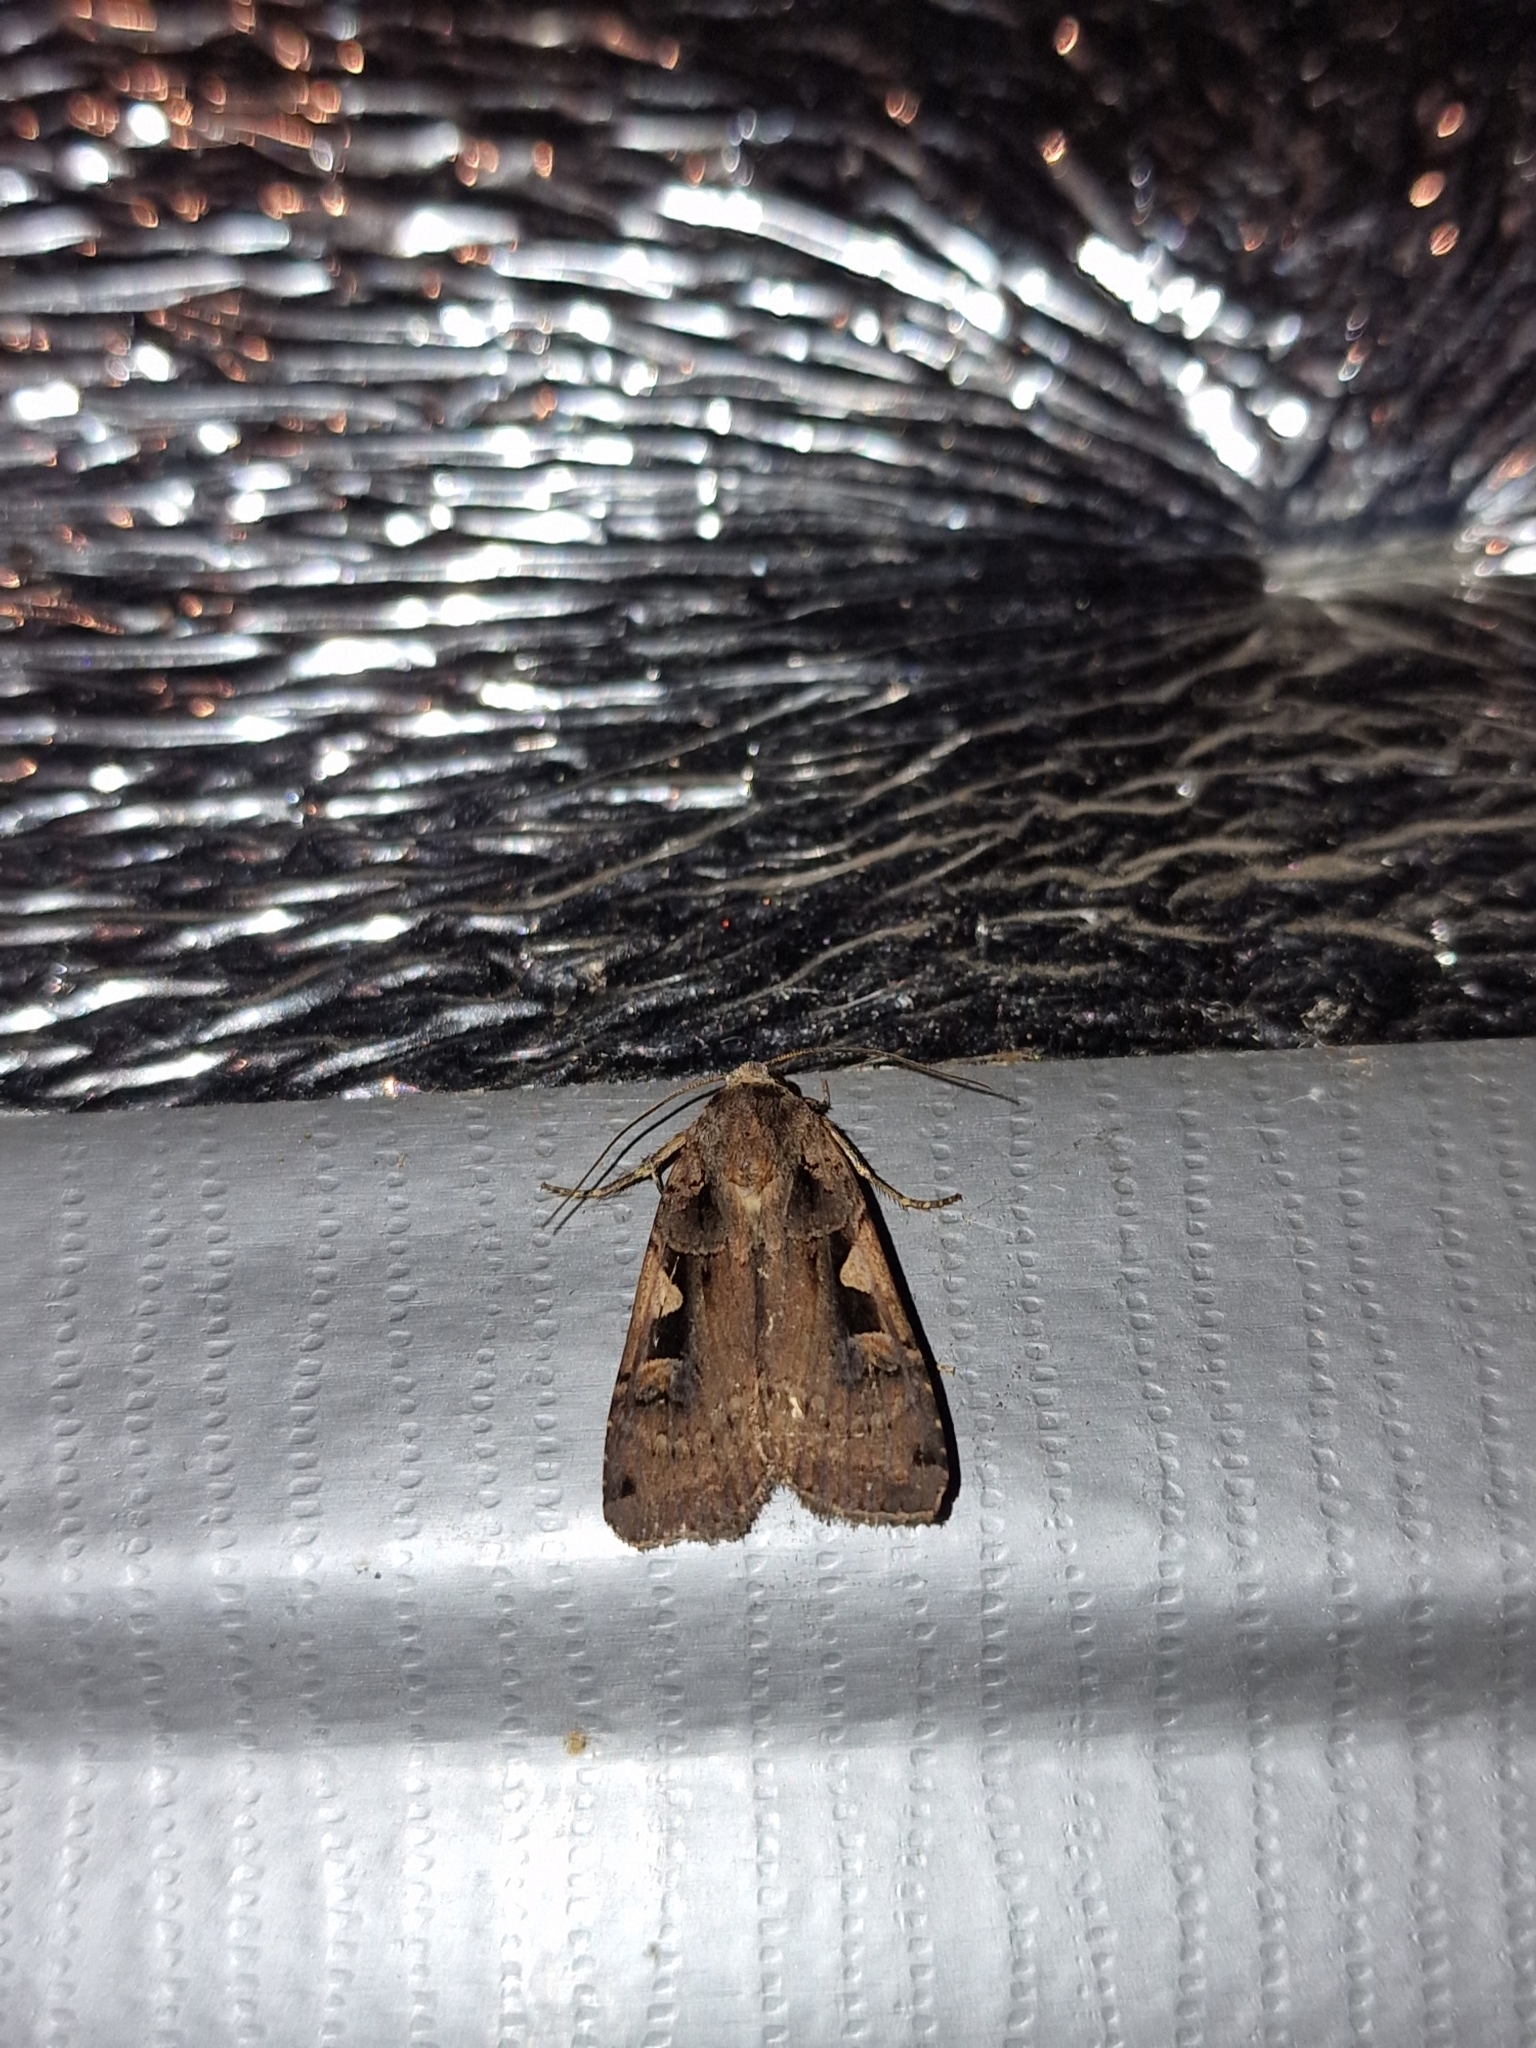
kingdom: Animalia
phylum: Arthropoda
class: Insecta
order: Lepidoptera
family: Noctuidae
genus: Xestia
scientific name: Xestia c-nigrum
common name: Setaceous hebrew character
